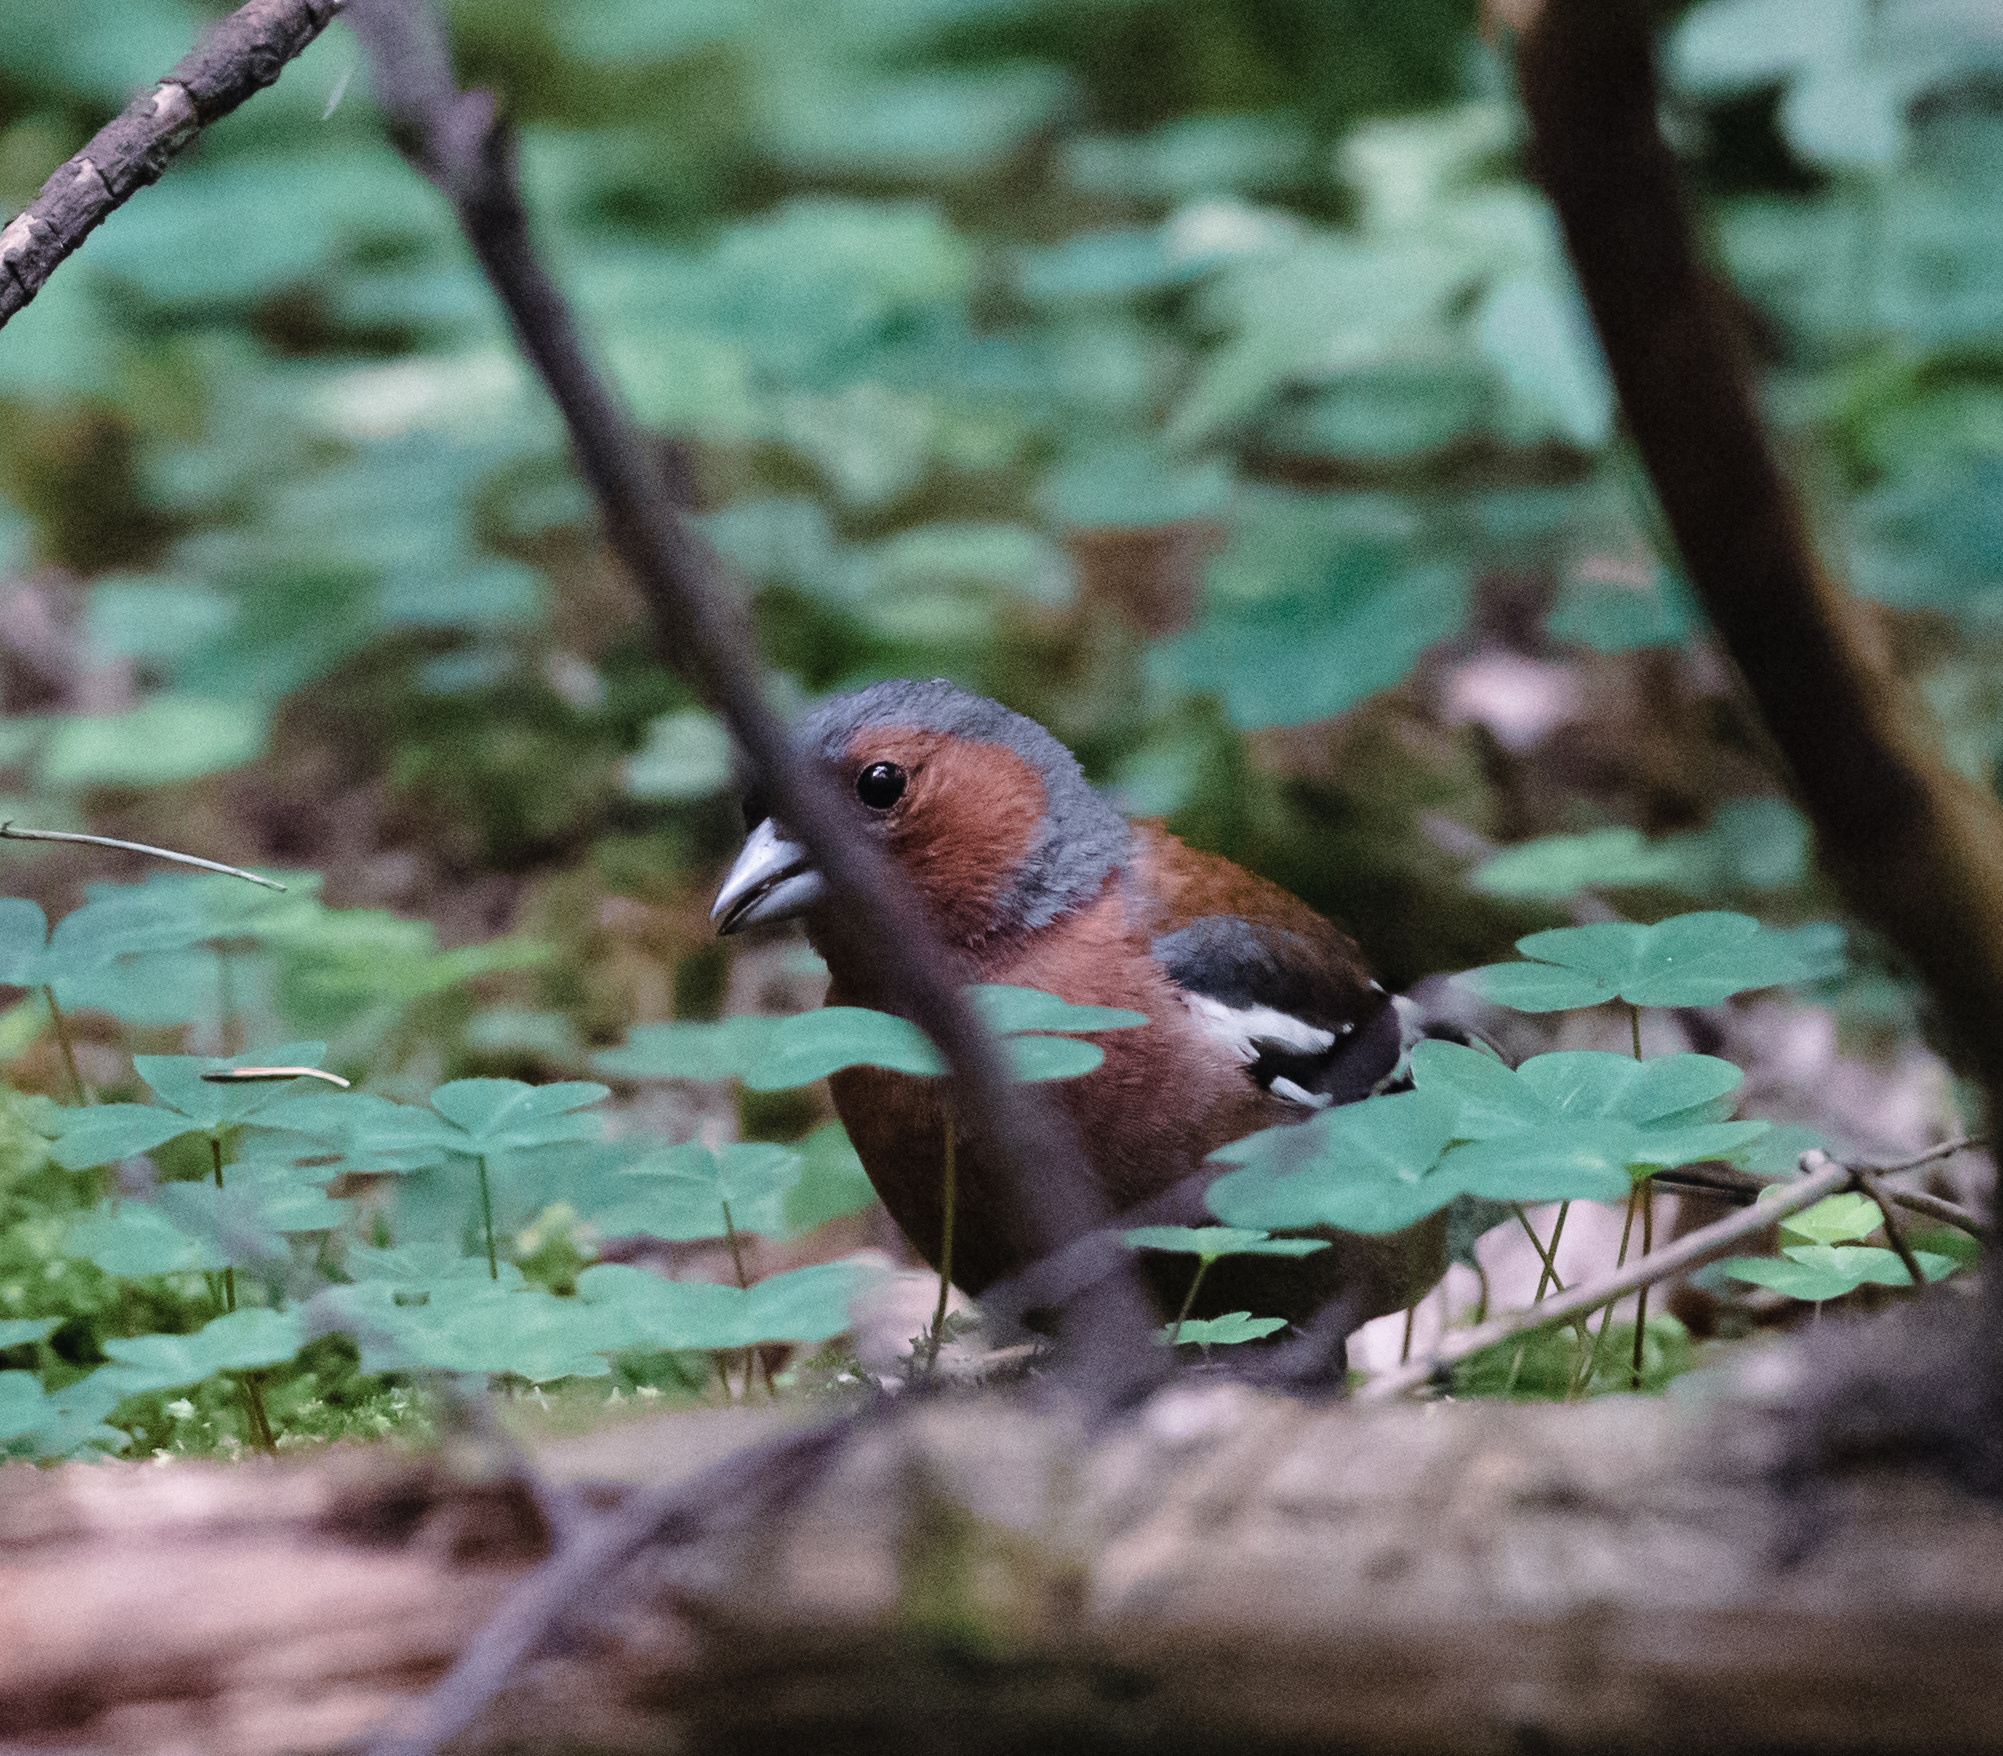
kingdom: Animalia
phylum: Chordata
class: Aves
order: Passeriformes
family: Fringillidae
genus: Fringilla
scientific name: Fringilla coelebs
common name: Common chaffinch
